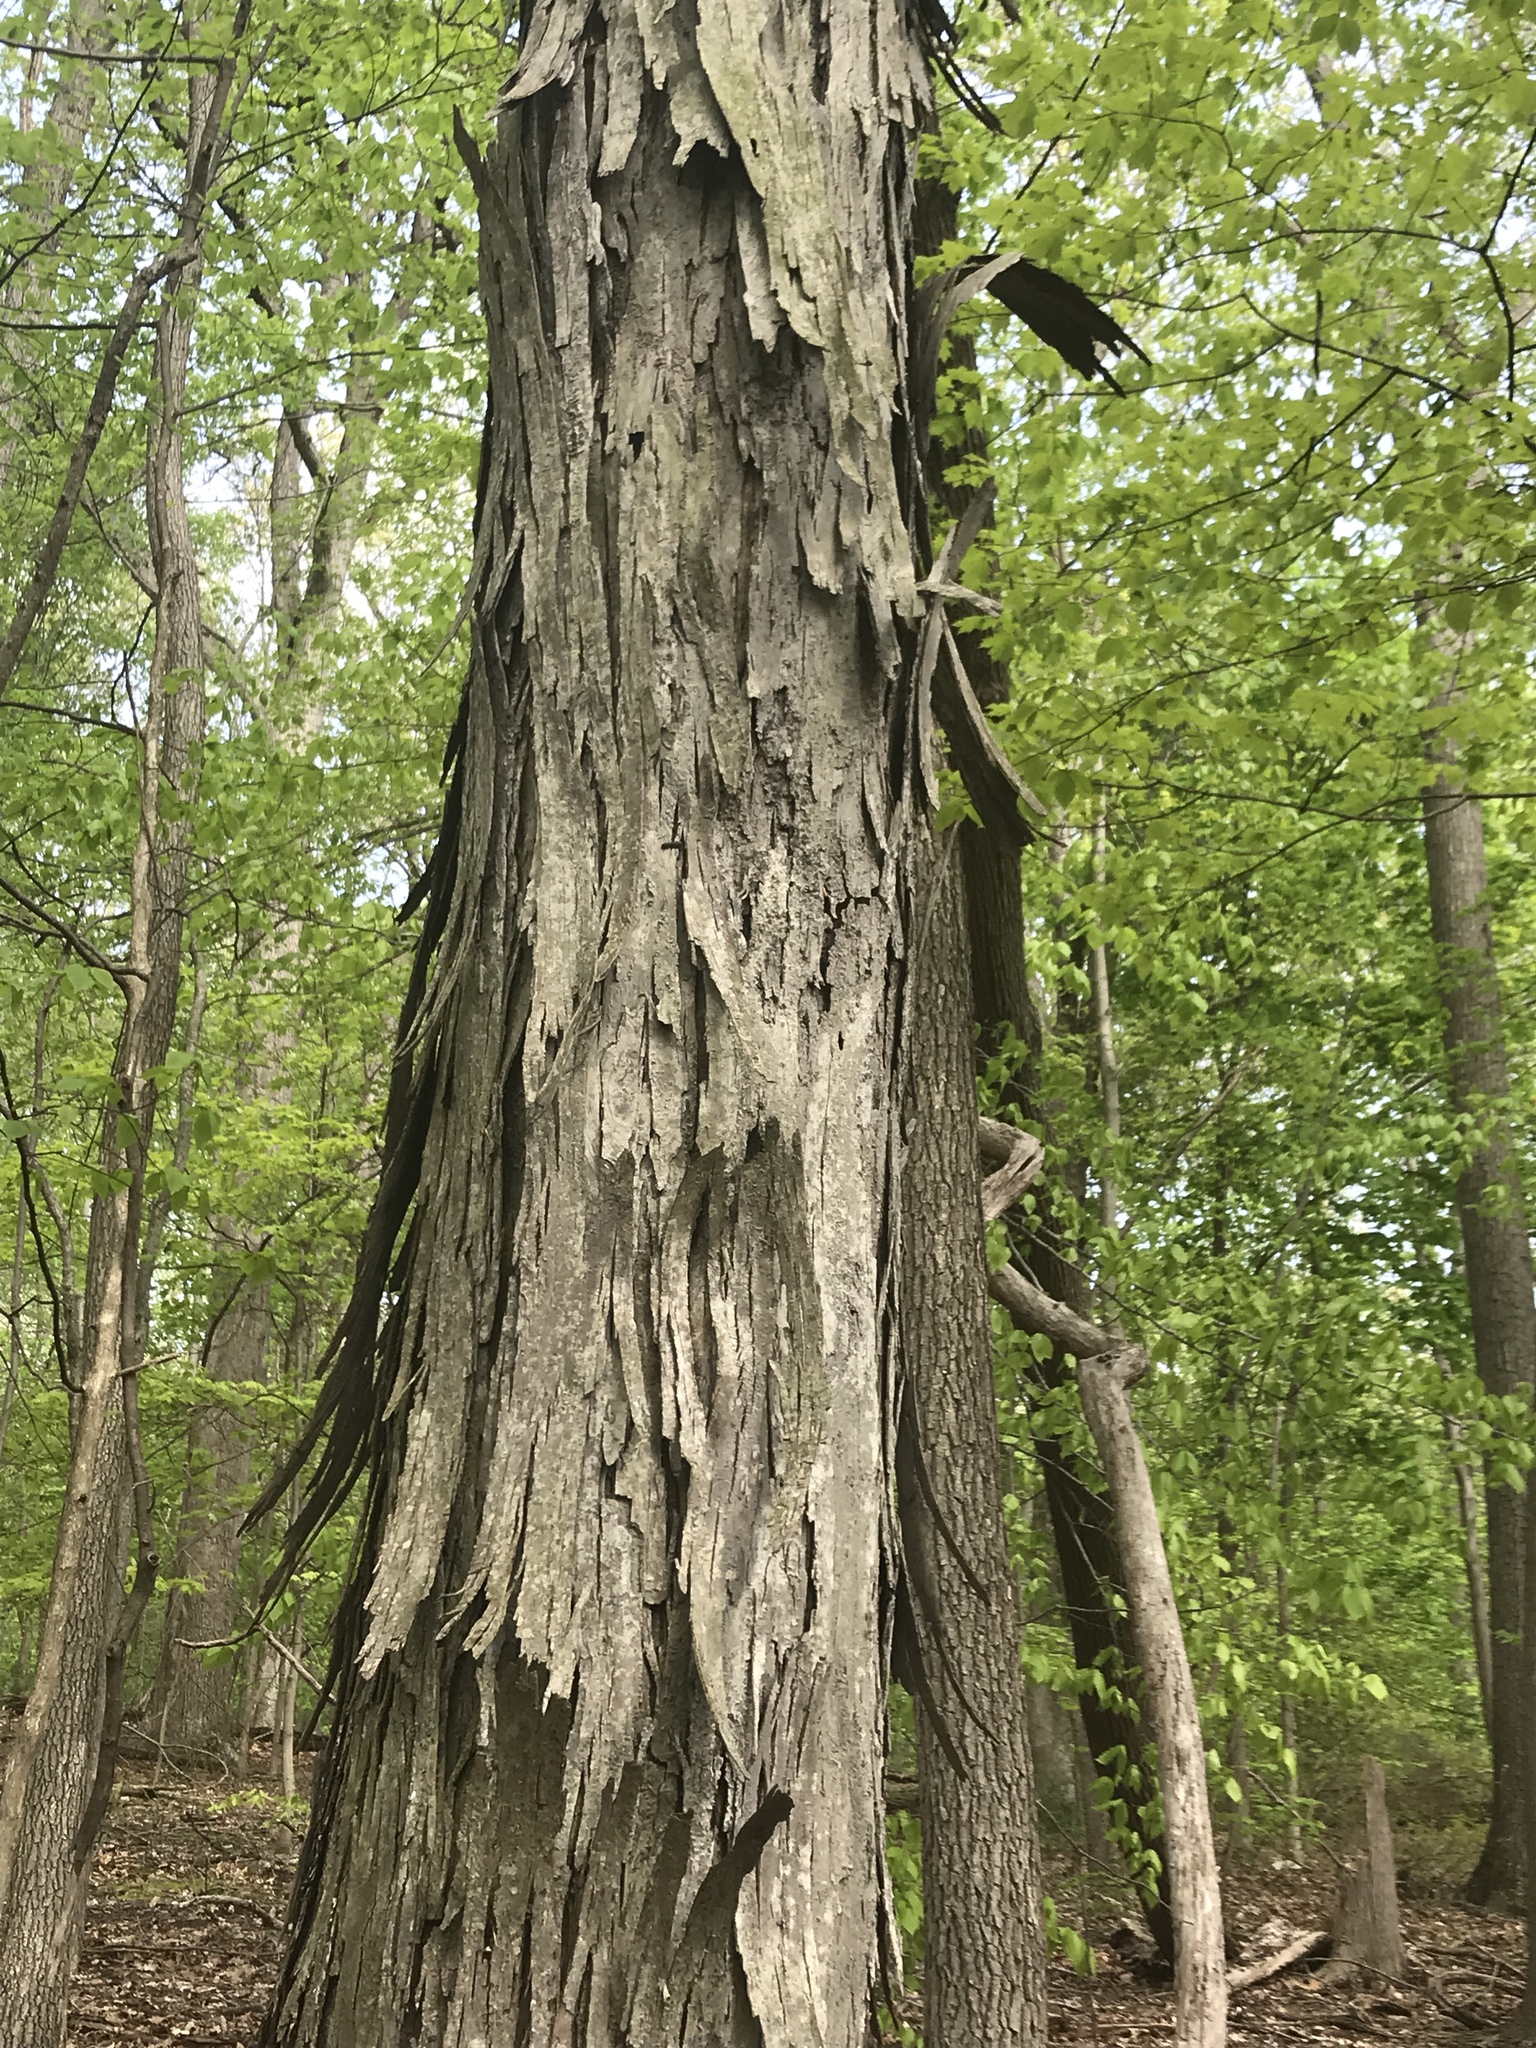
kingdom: Plantae
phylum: Tracheophyta
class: Magnoliopsida
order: Fagales
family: Juglandaceae
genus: Carya
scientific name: Carya ovata
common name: Shagbark hickory
